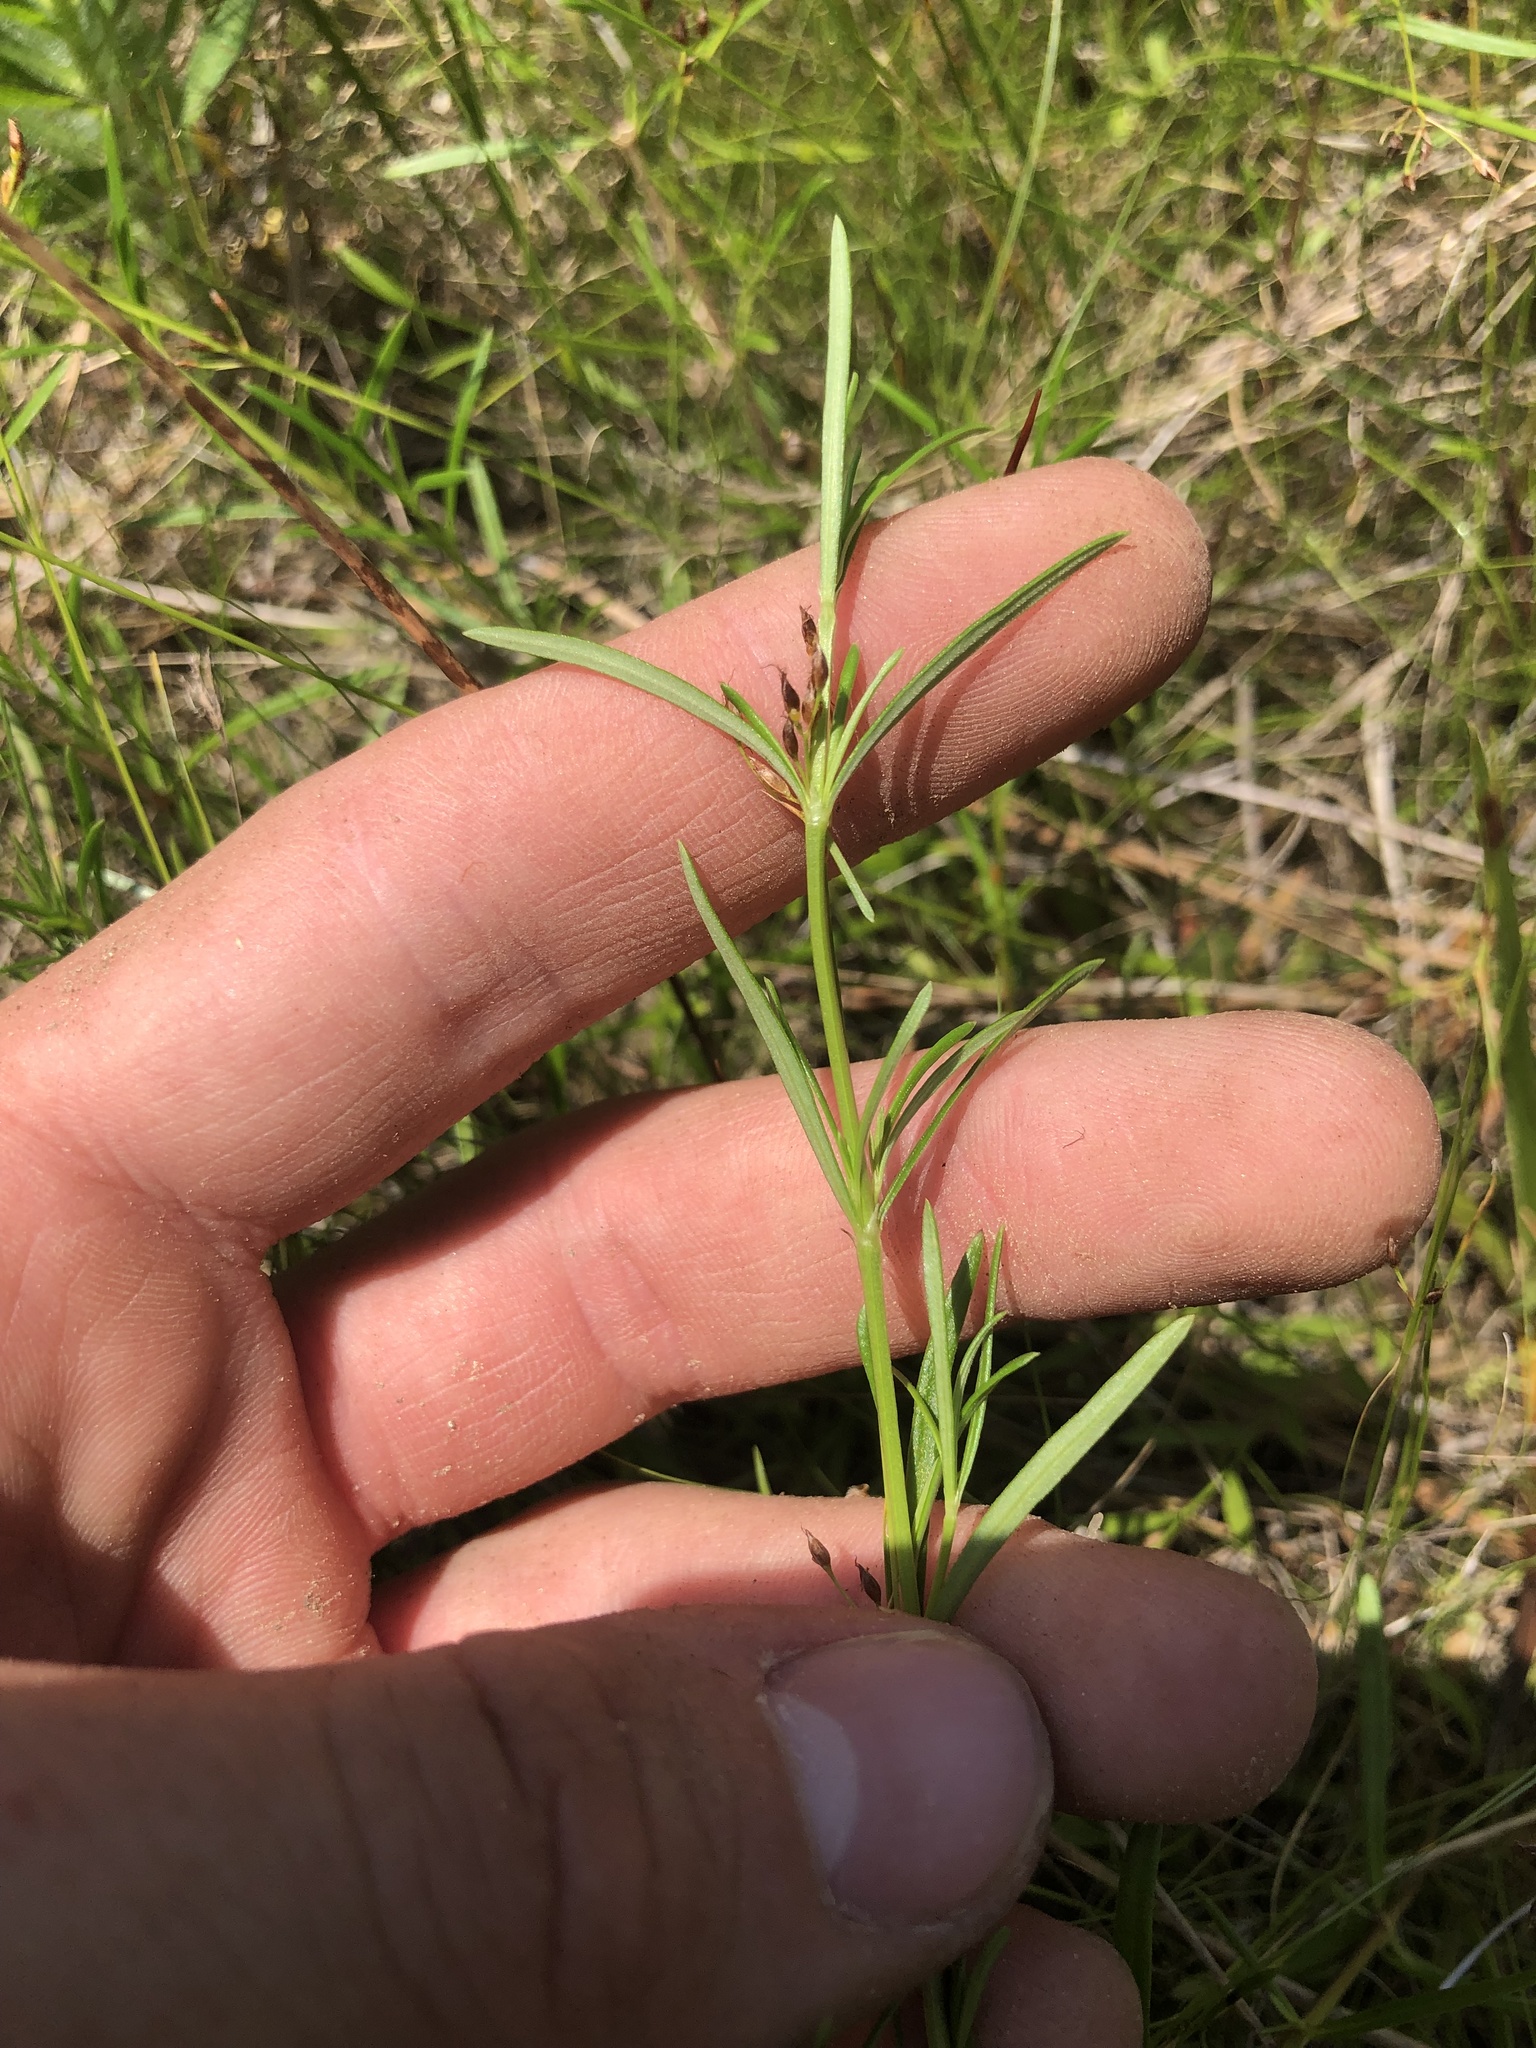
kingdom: Plantae
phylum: Tracheophyta
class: Magnoliopsida
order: Gentianales
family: Rubiaceae
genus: Stenaria
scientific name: Stenaria nigricans
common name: Diamondflowers
